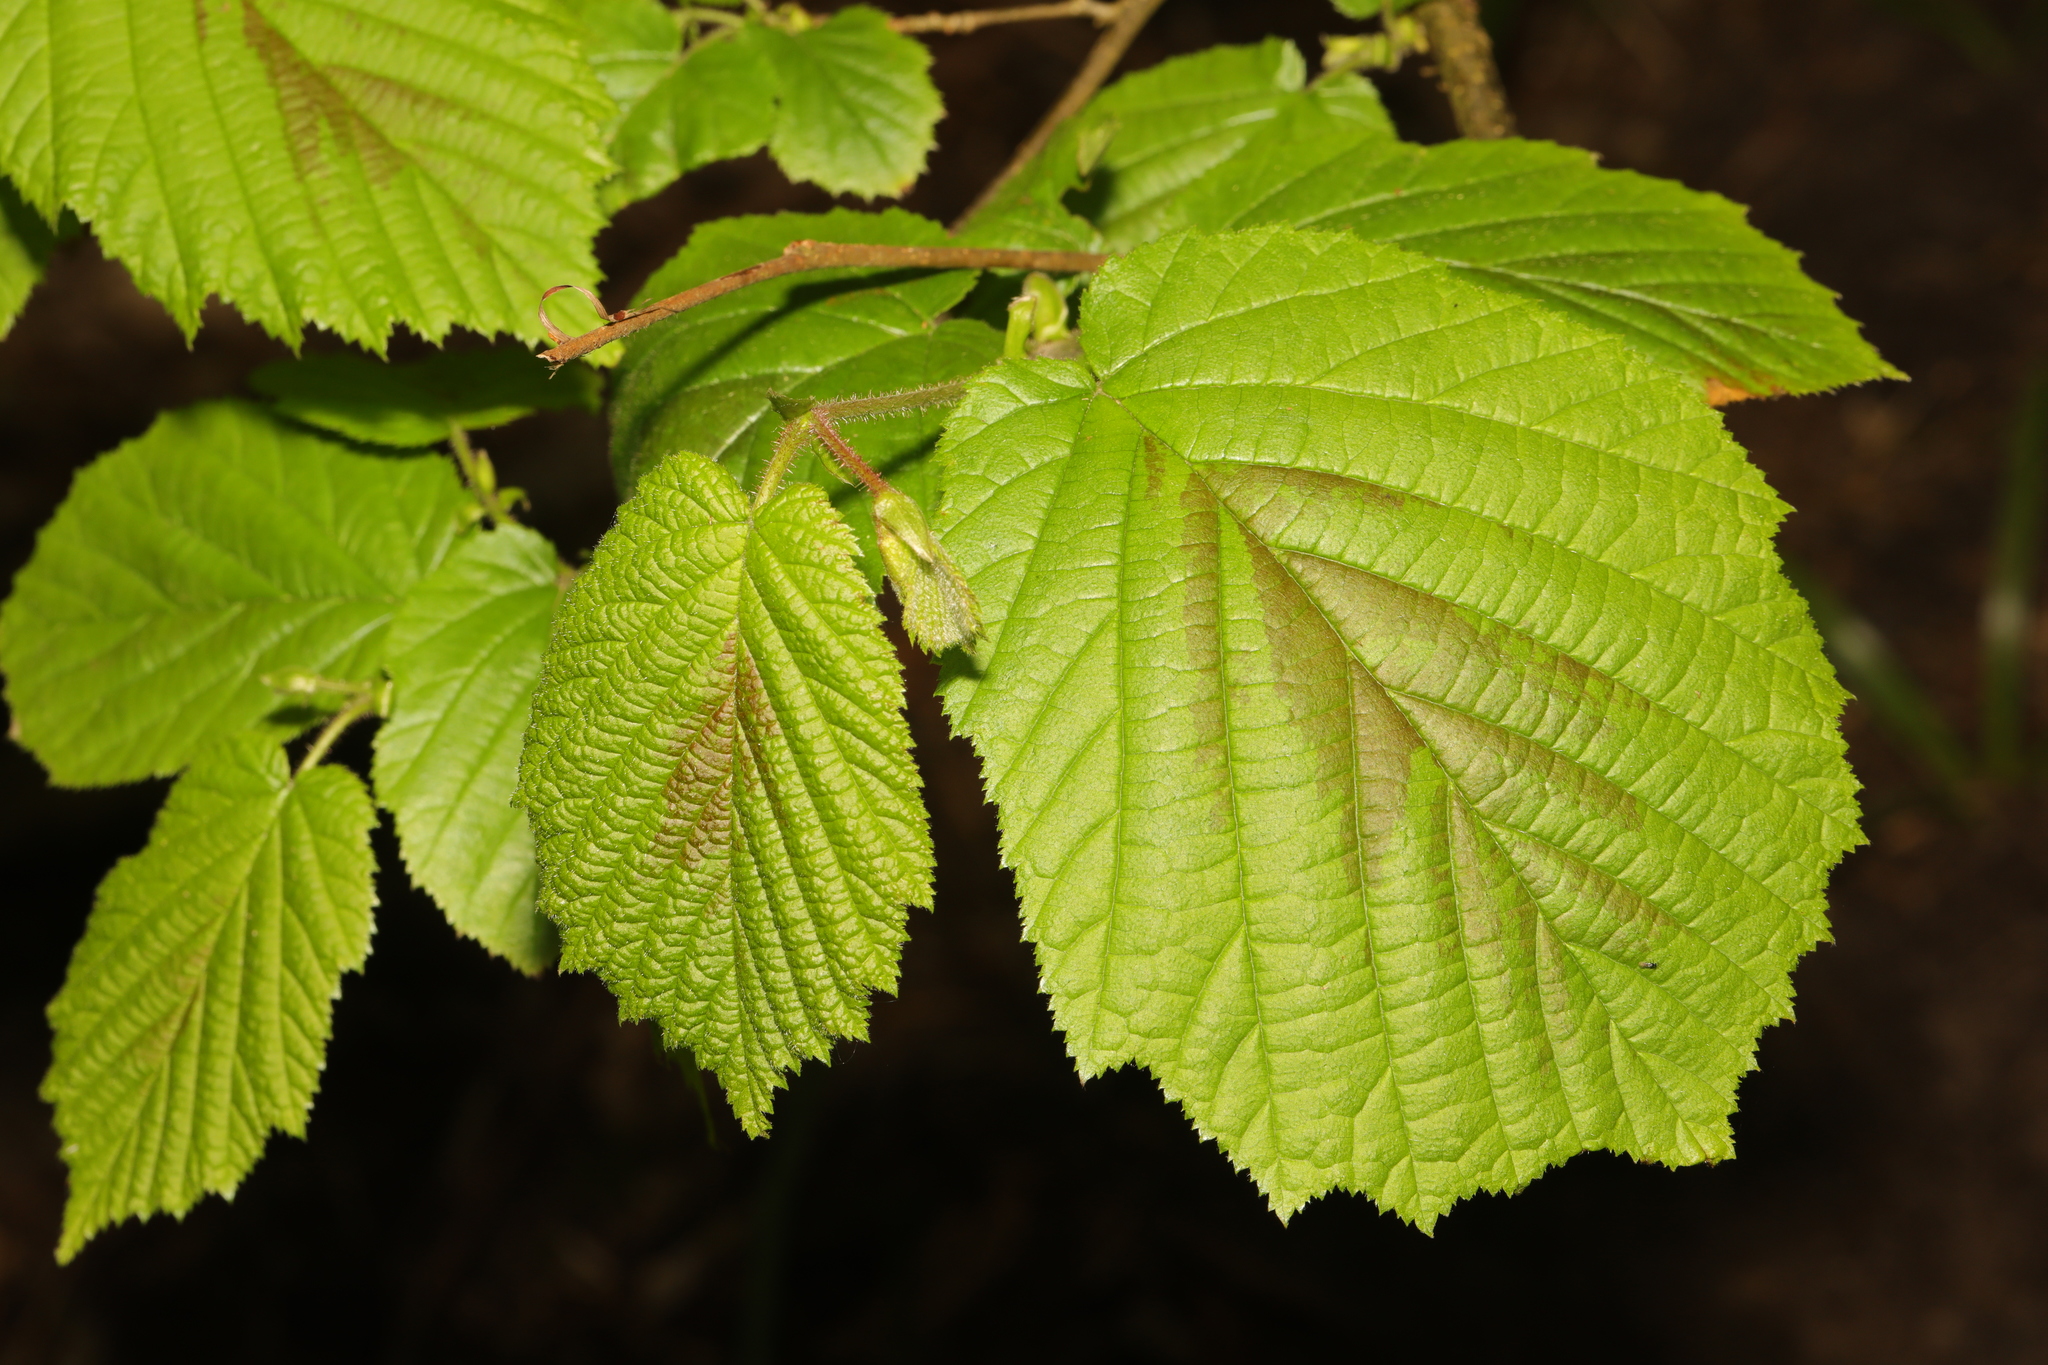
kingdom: Plantae
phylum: Tracheophyta
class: Magnoliopsida
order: Fagales
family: Betulaceae
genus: Corylus
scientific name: Corylus avellana
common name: European hazel
